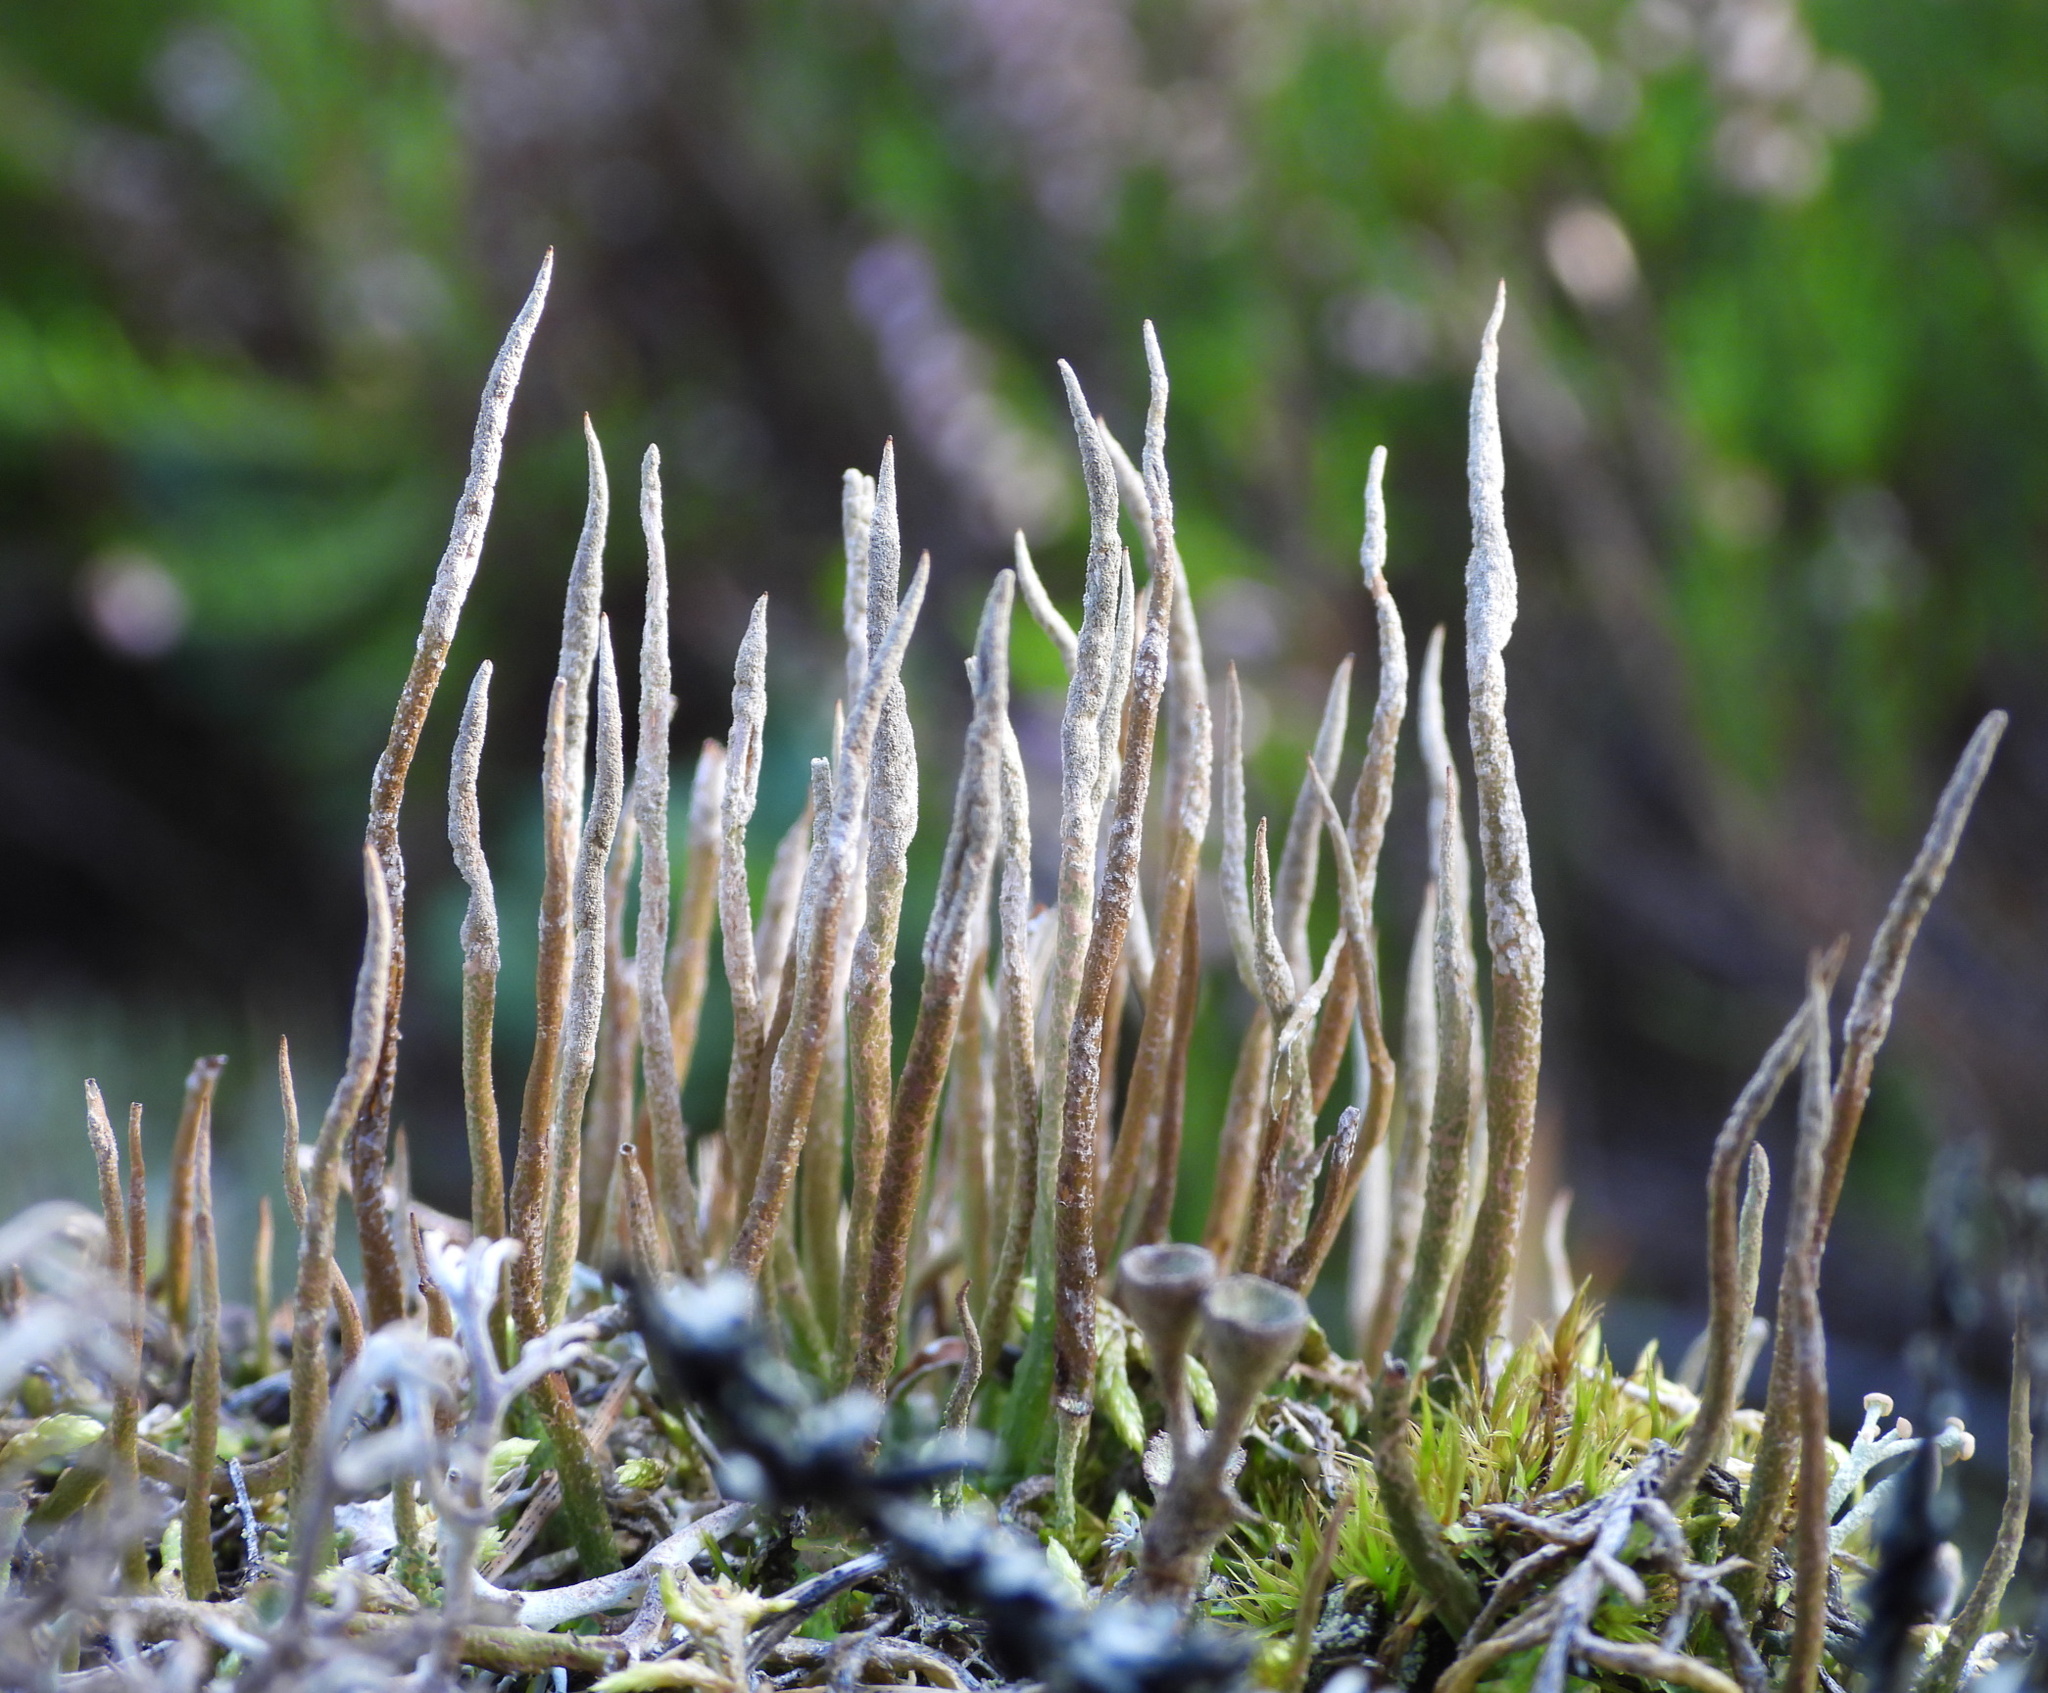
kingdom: Fungi
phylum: Ascomycota
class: Lecanoromycetes
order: Lecanorales
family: Cladoniaceae
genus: Cladonia
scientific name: Cladonia cornuta
